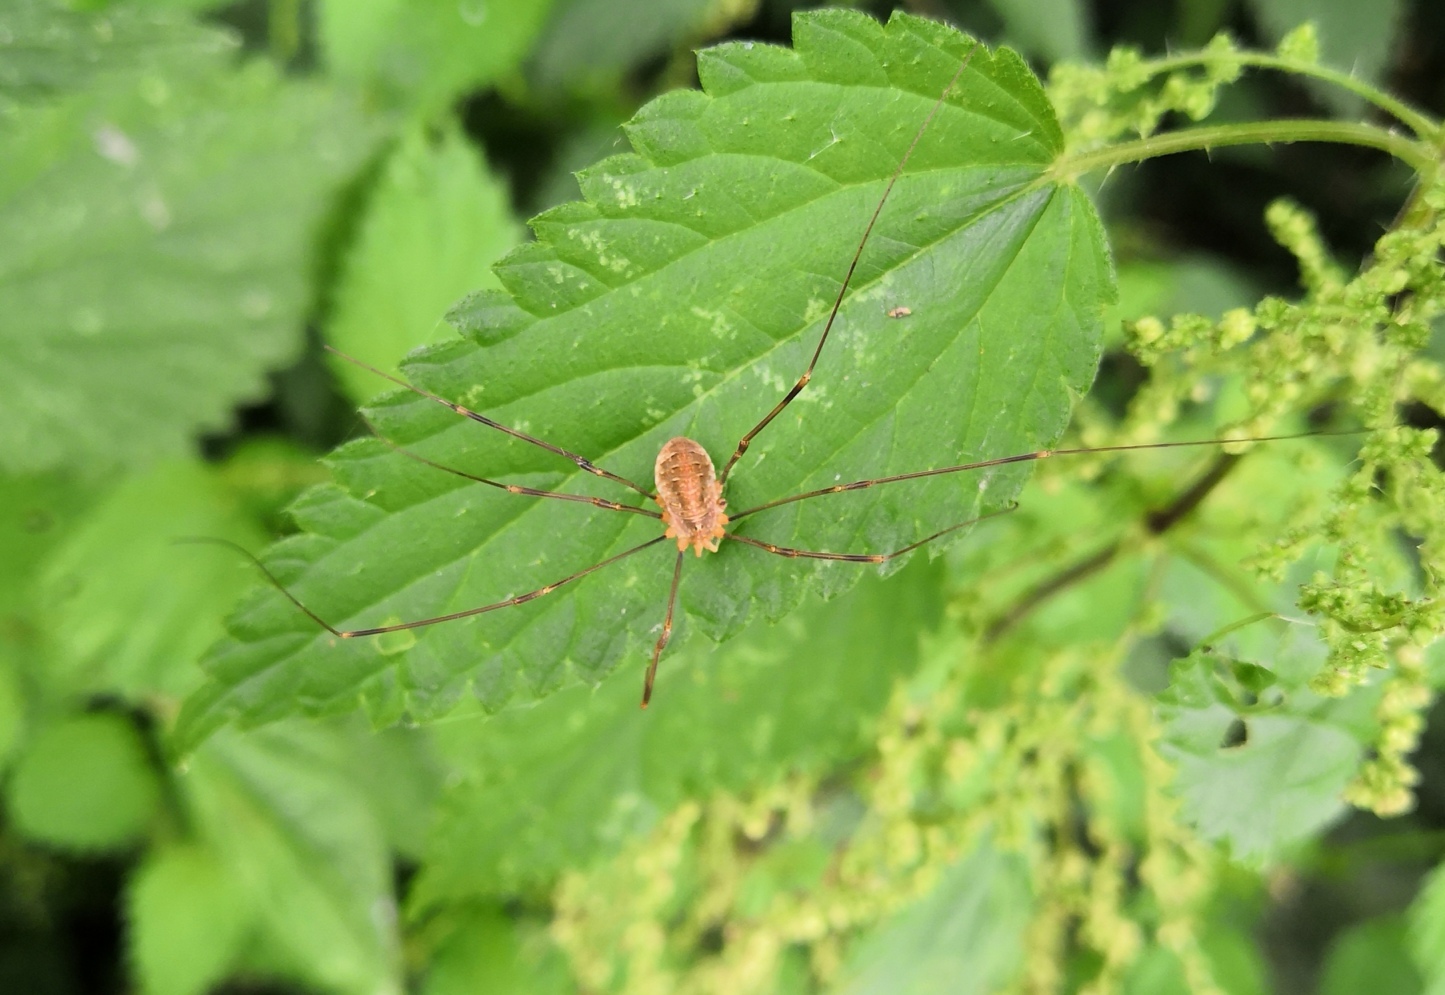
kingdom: Animalia
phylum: Arthropoda
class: Arachnida
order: Opiliones
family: Phalangiidae
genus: Opilio
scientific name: Opilio canestrinii
